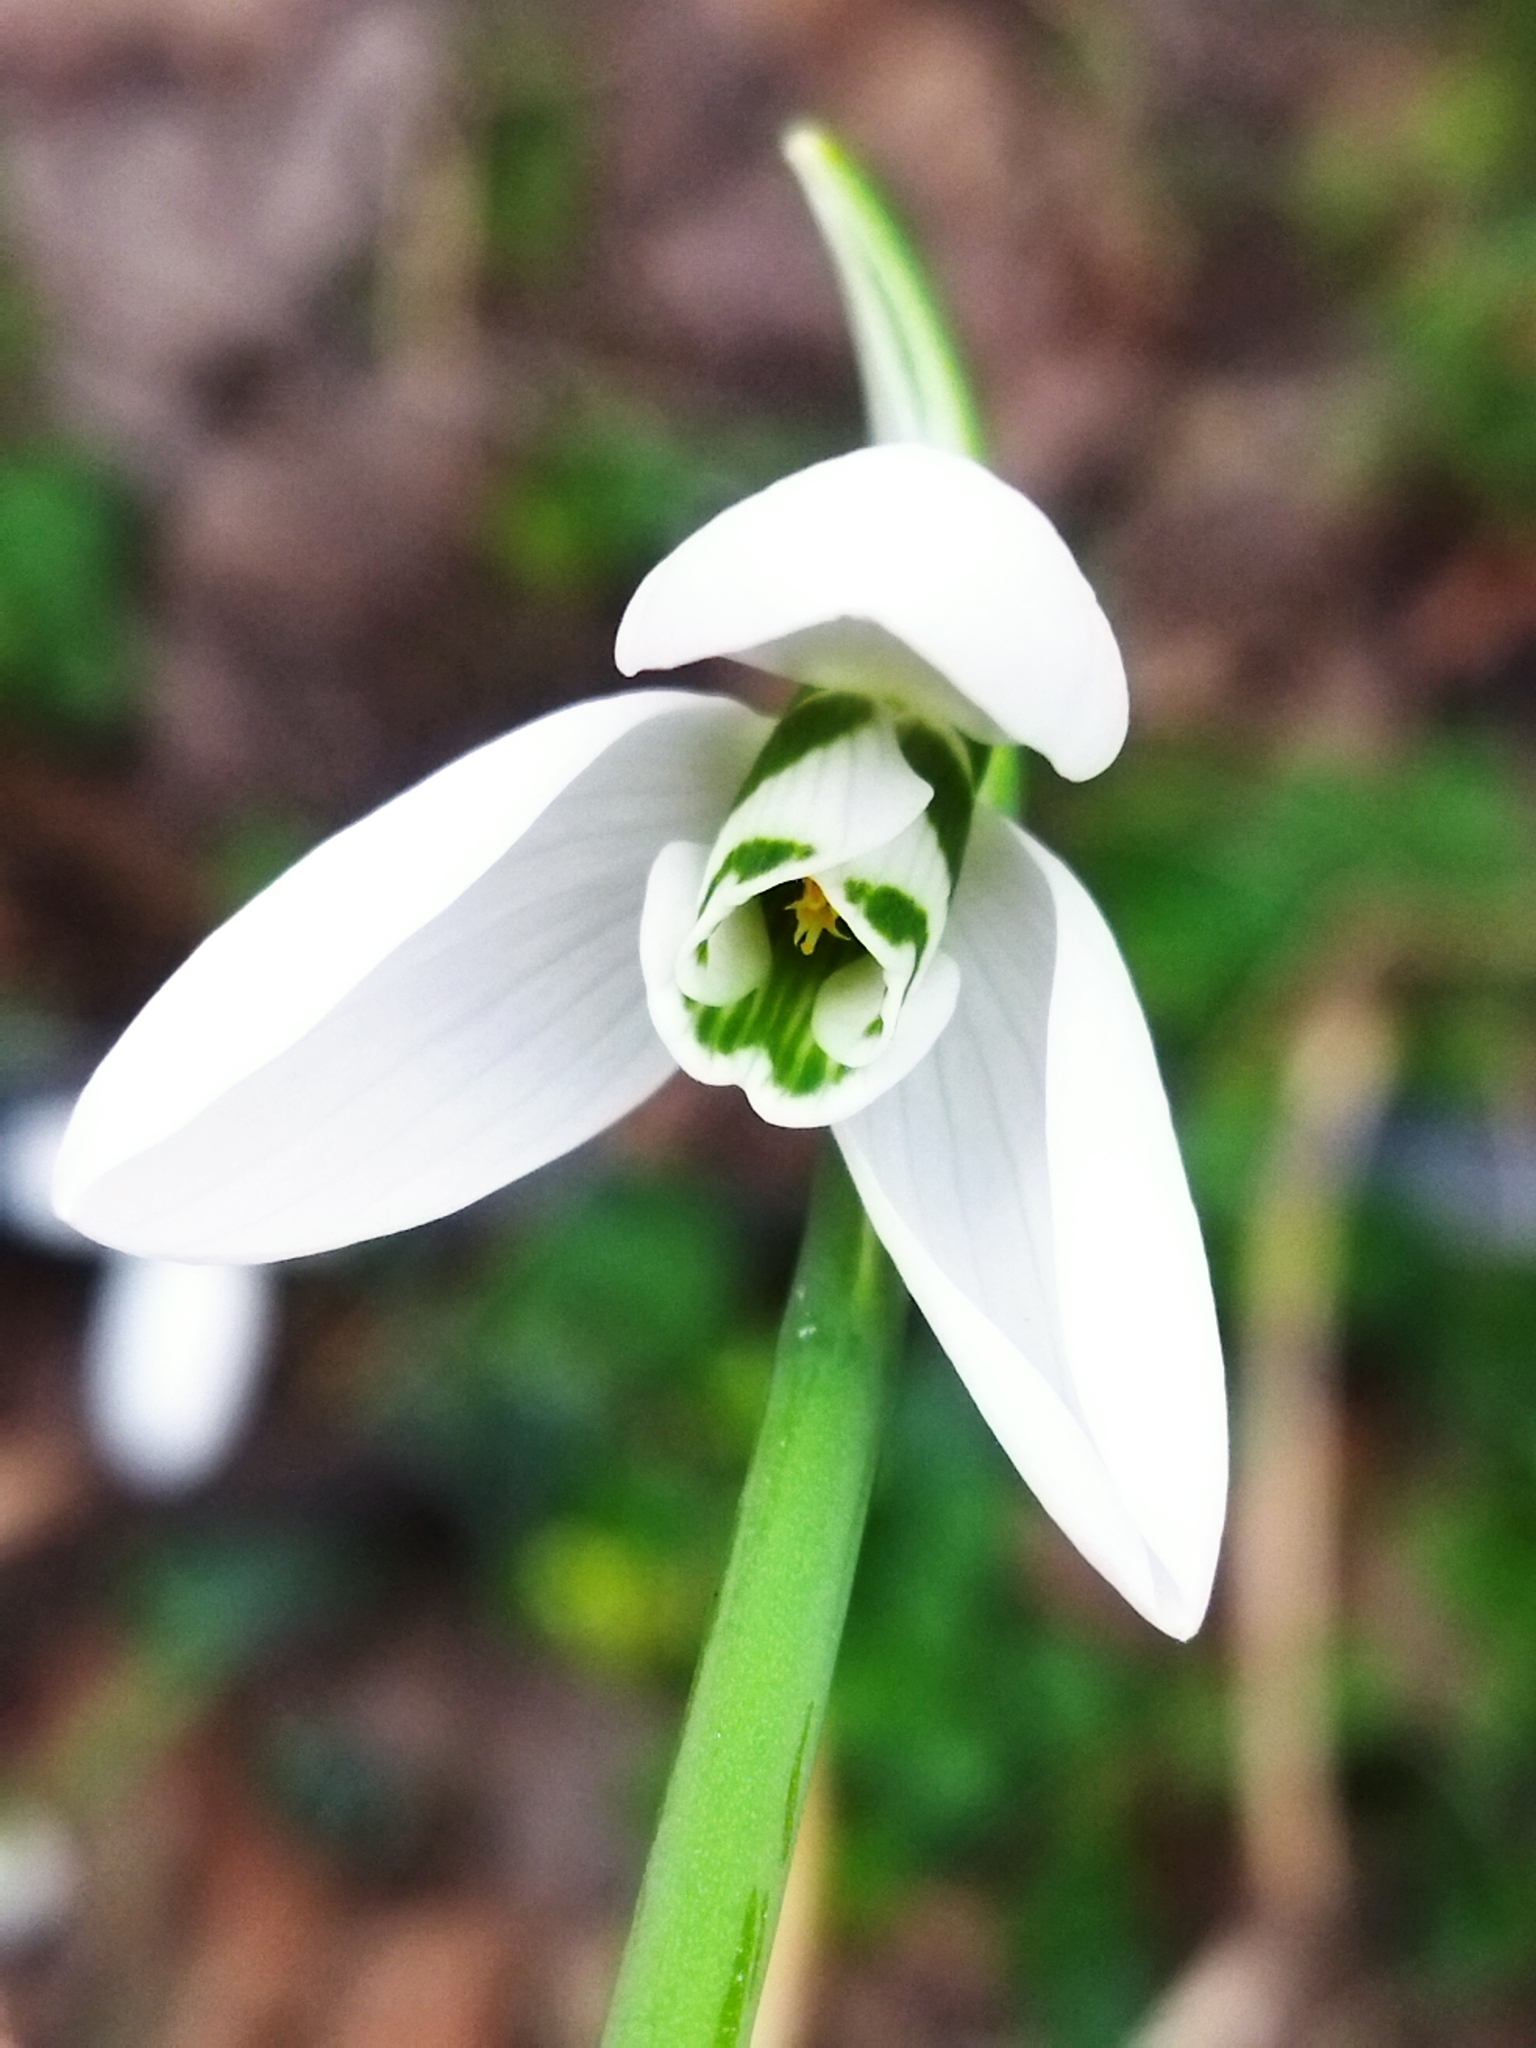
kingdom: Plantae
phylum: Tracheophyta
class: Liliopsida
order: Asparagales
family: Amaryllidaceae
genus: Galanthus
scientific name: Galanthus elwesii
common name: Greater snowdrop
